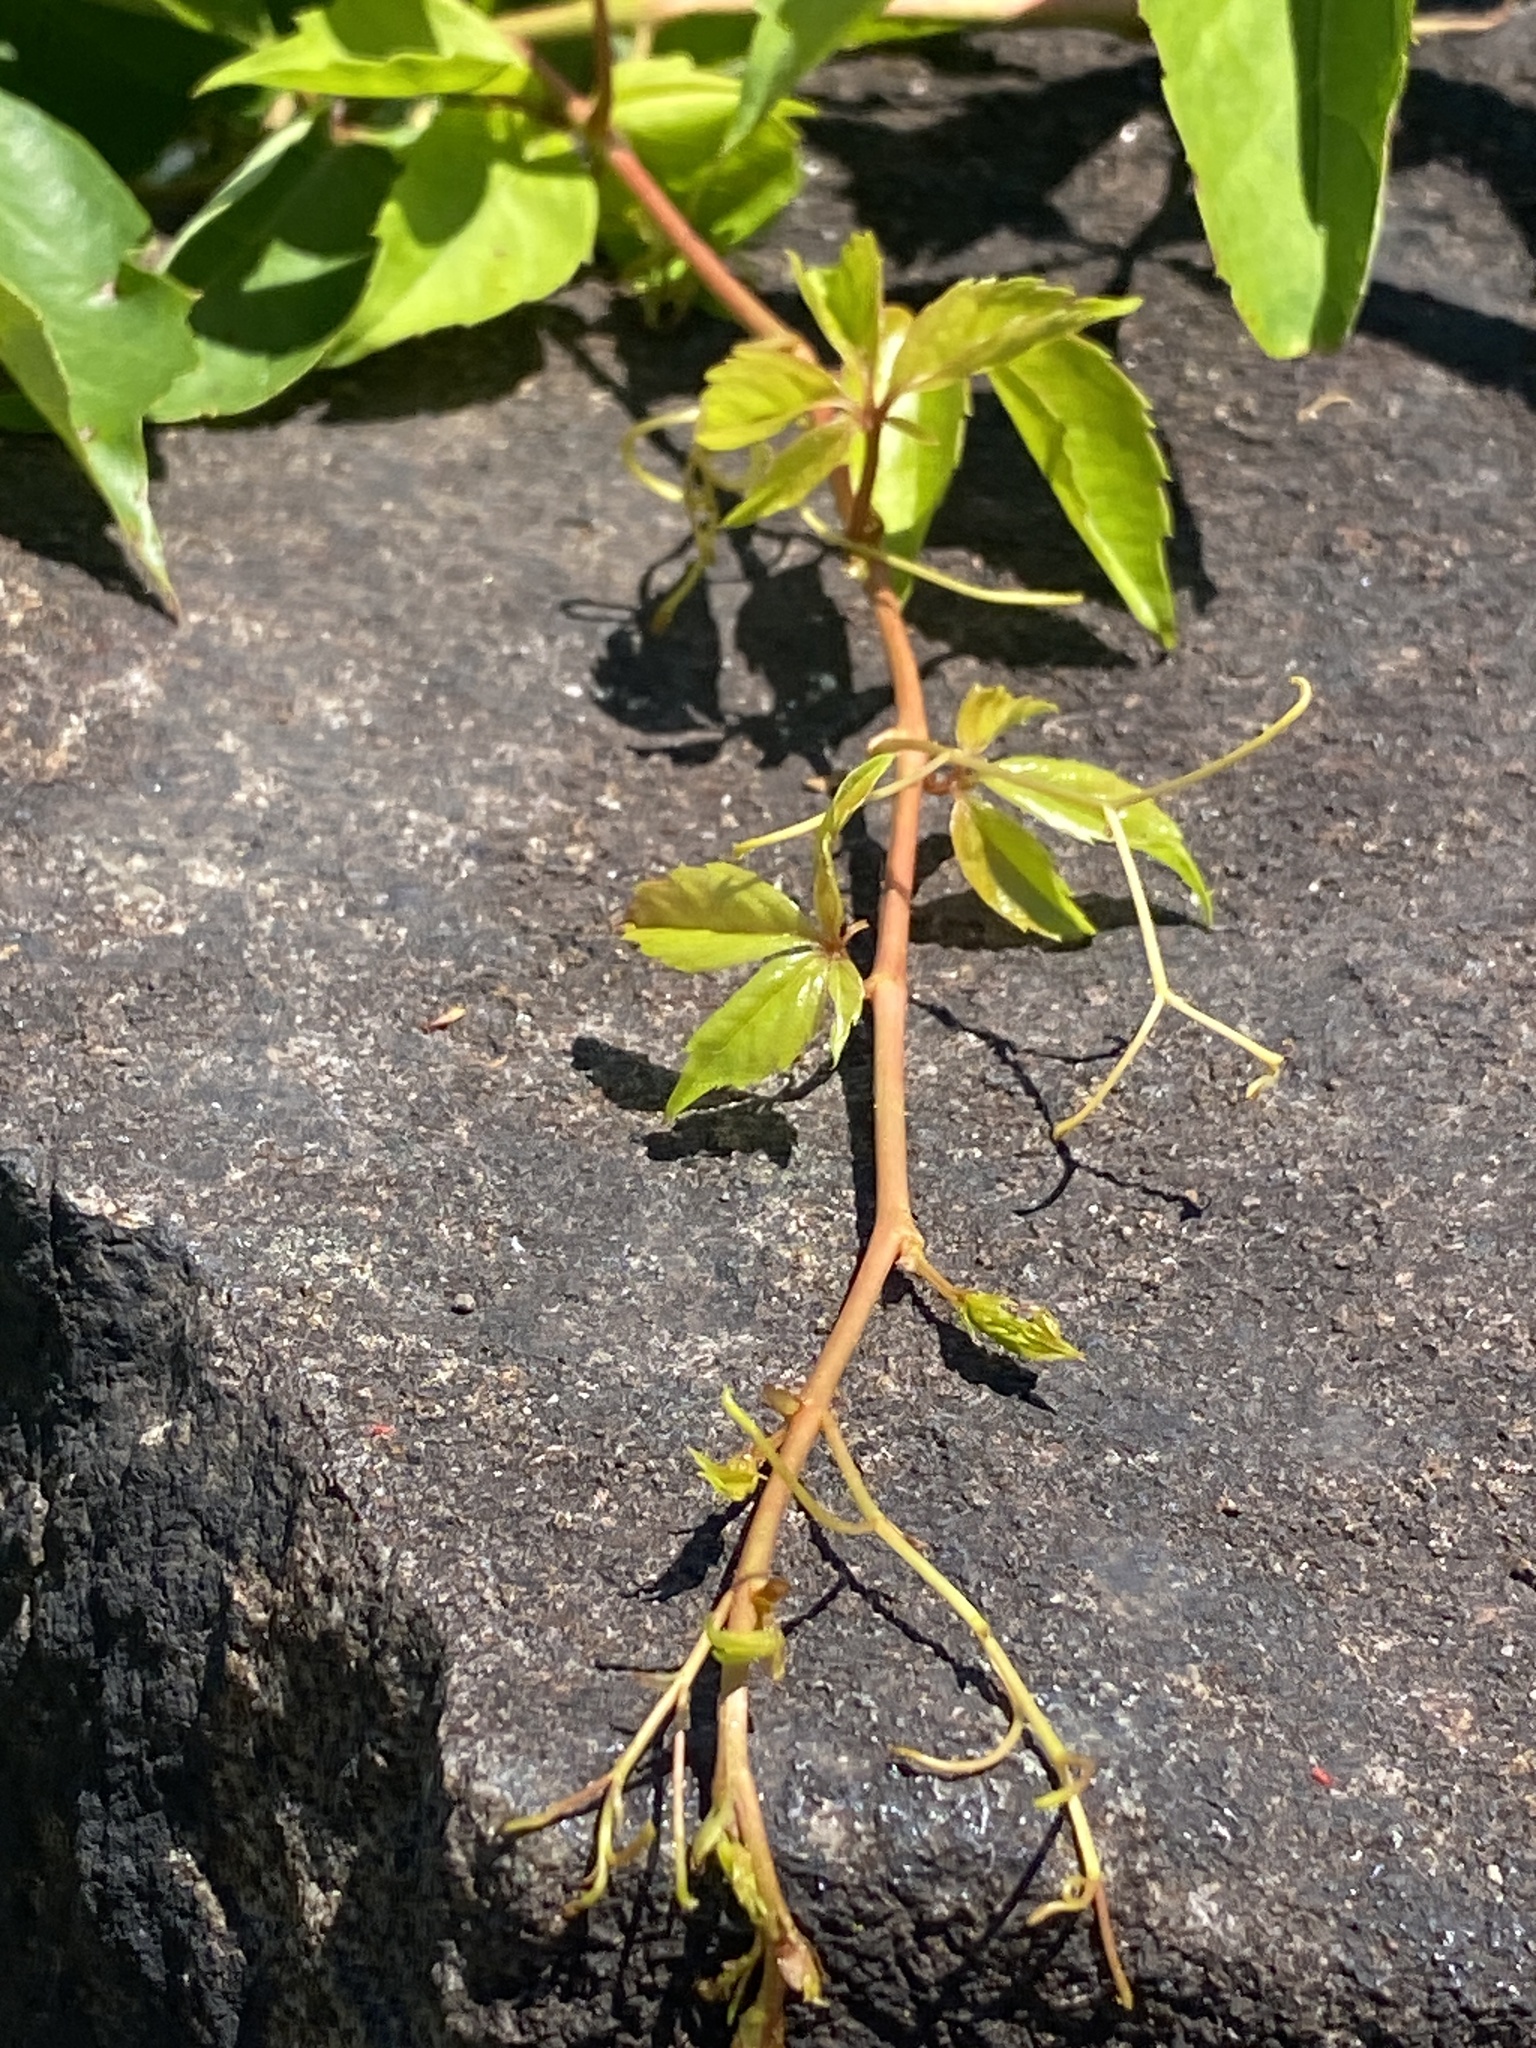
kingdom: Plantae
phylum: Tracheophyta
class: Magnoliopsida
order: Vitales
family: Vitaceae
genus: Parthenocissus
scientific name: Parthenocissus quinquefolia
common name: Virginia-creeper
